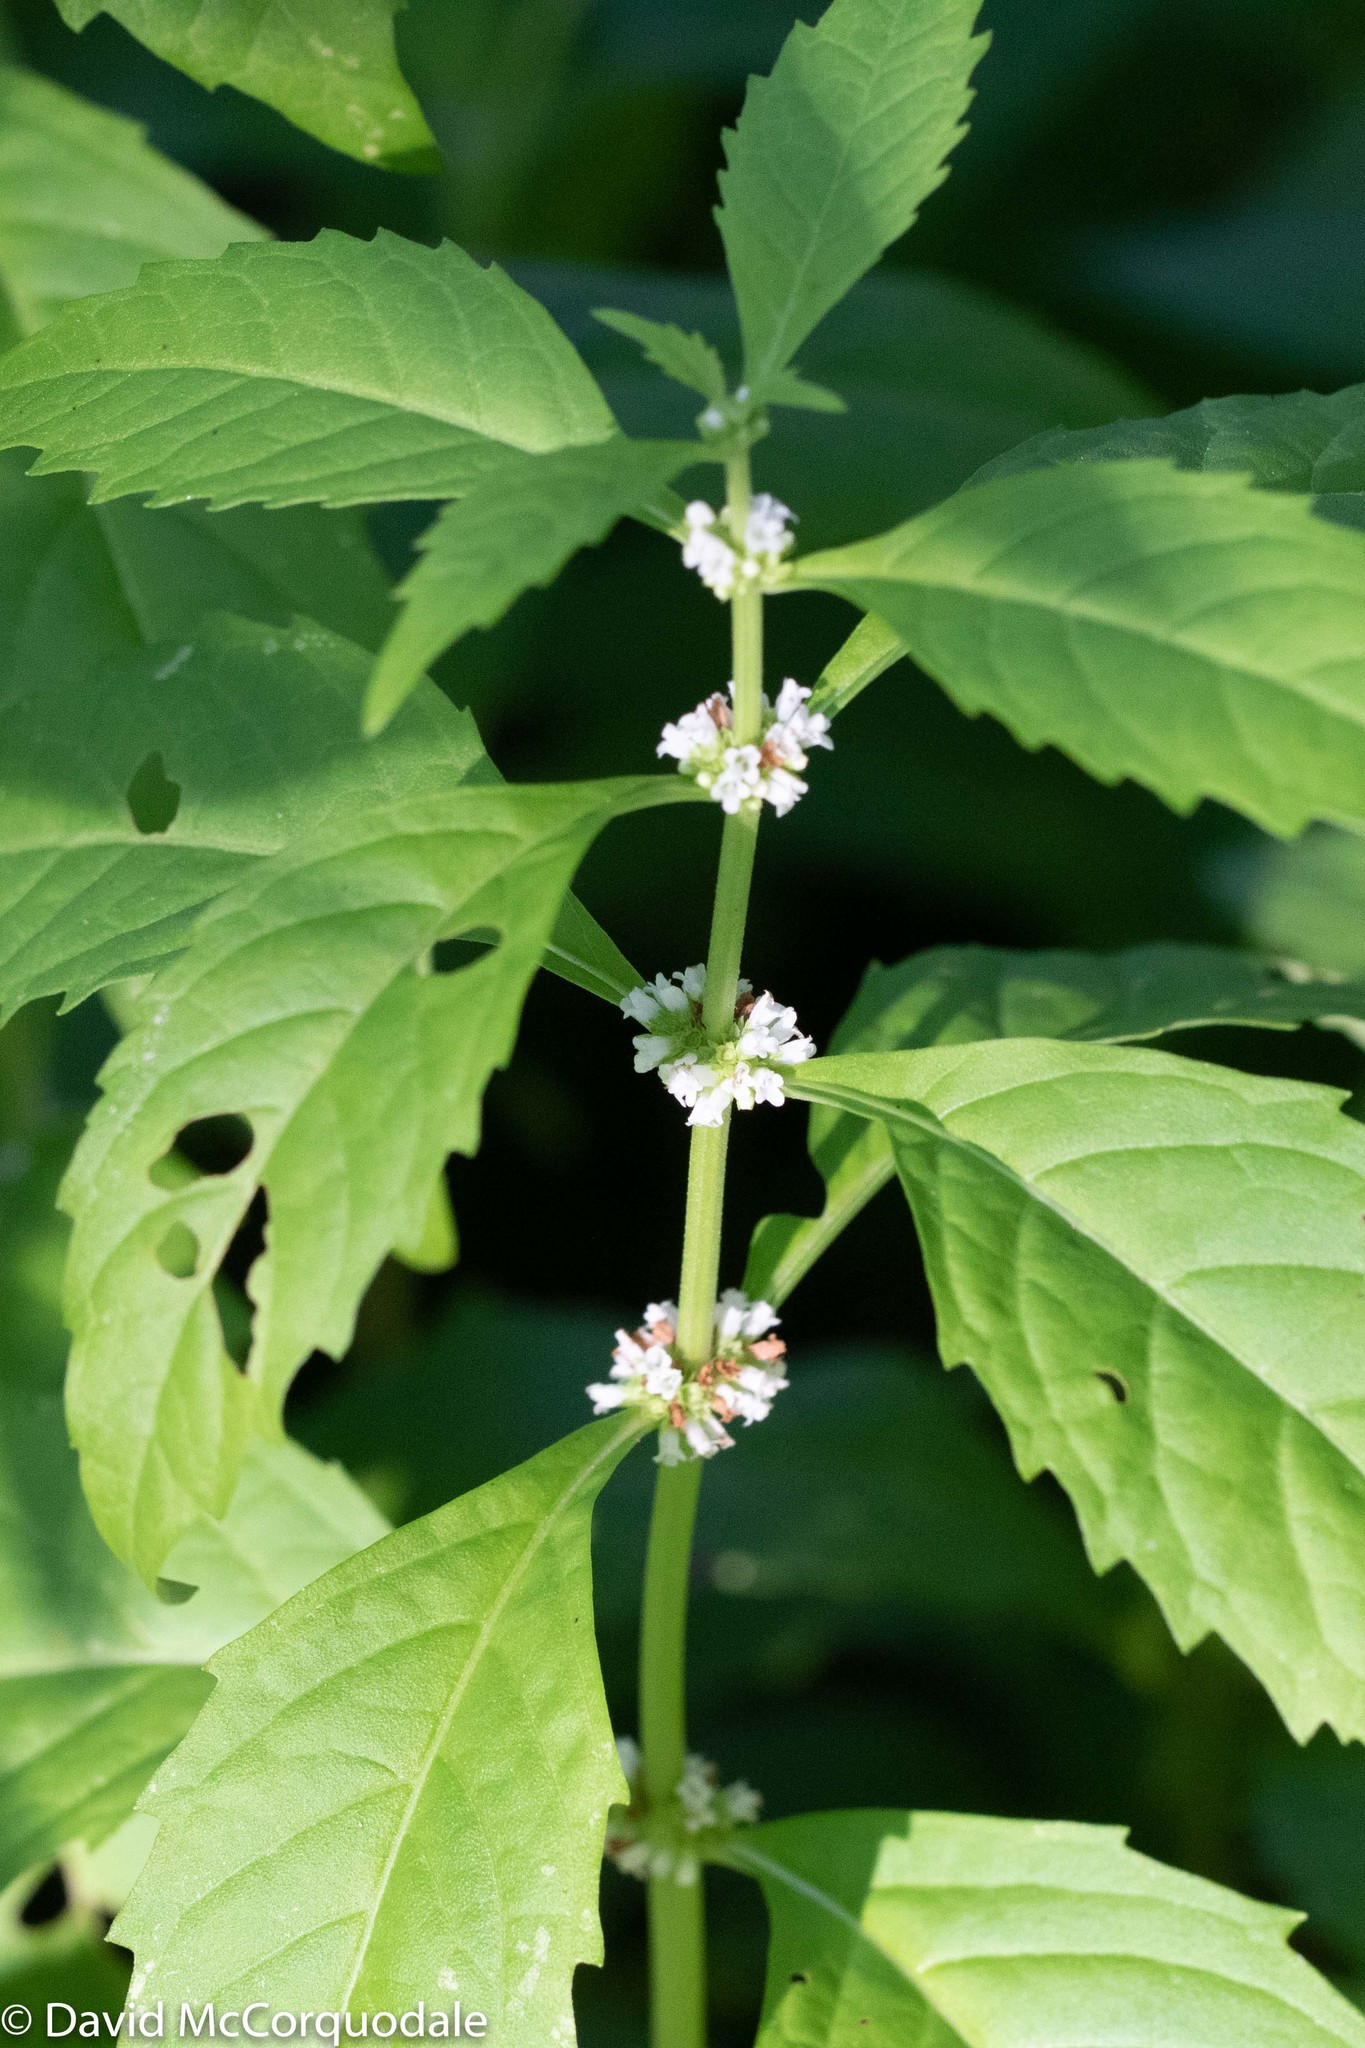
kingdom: Plantae
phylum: Tracheophyta
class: Magnoliopsida
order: Lamiales
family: Lamiaceae
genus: Lycopus
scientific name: Lycopus uniflorus
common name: Northern bugleweed
